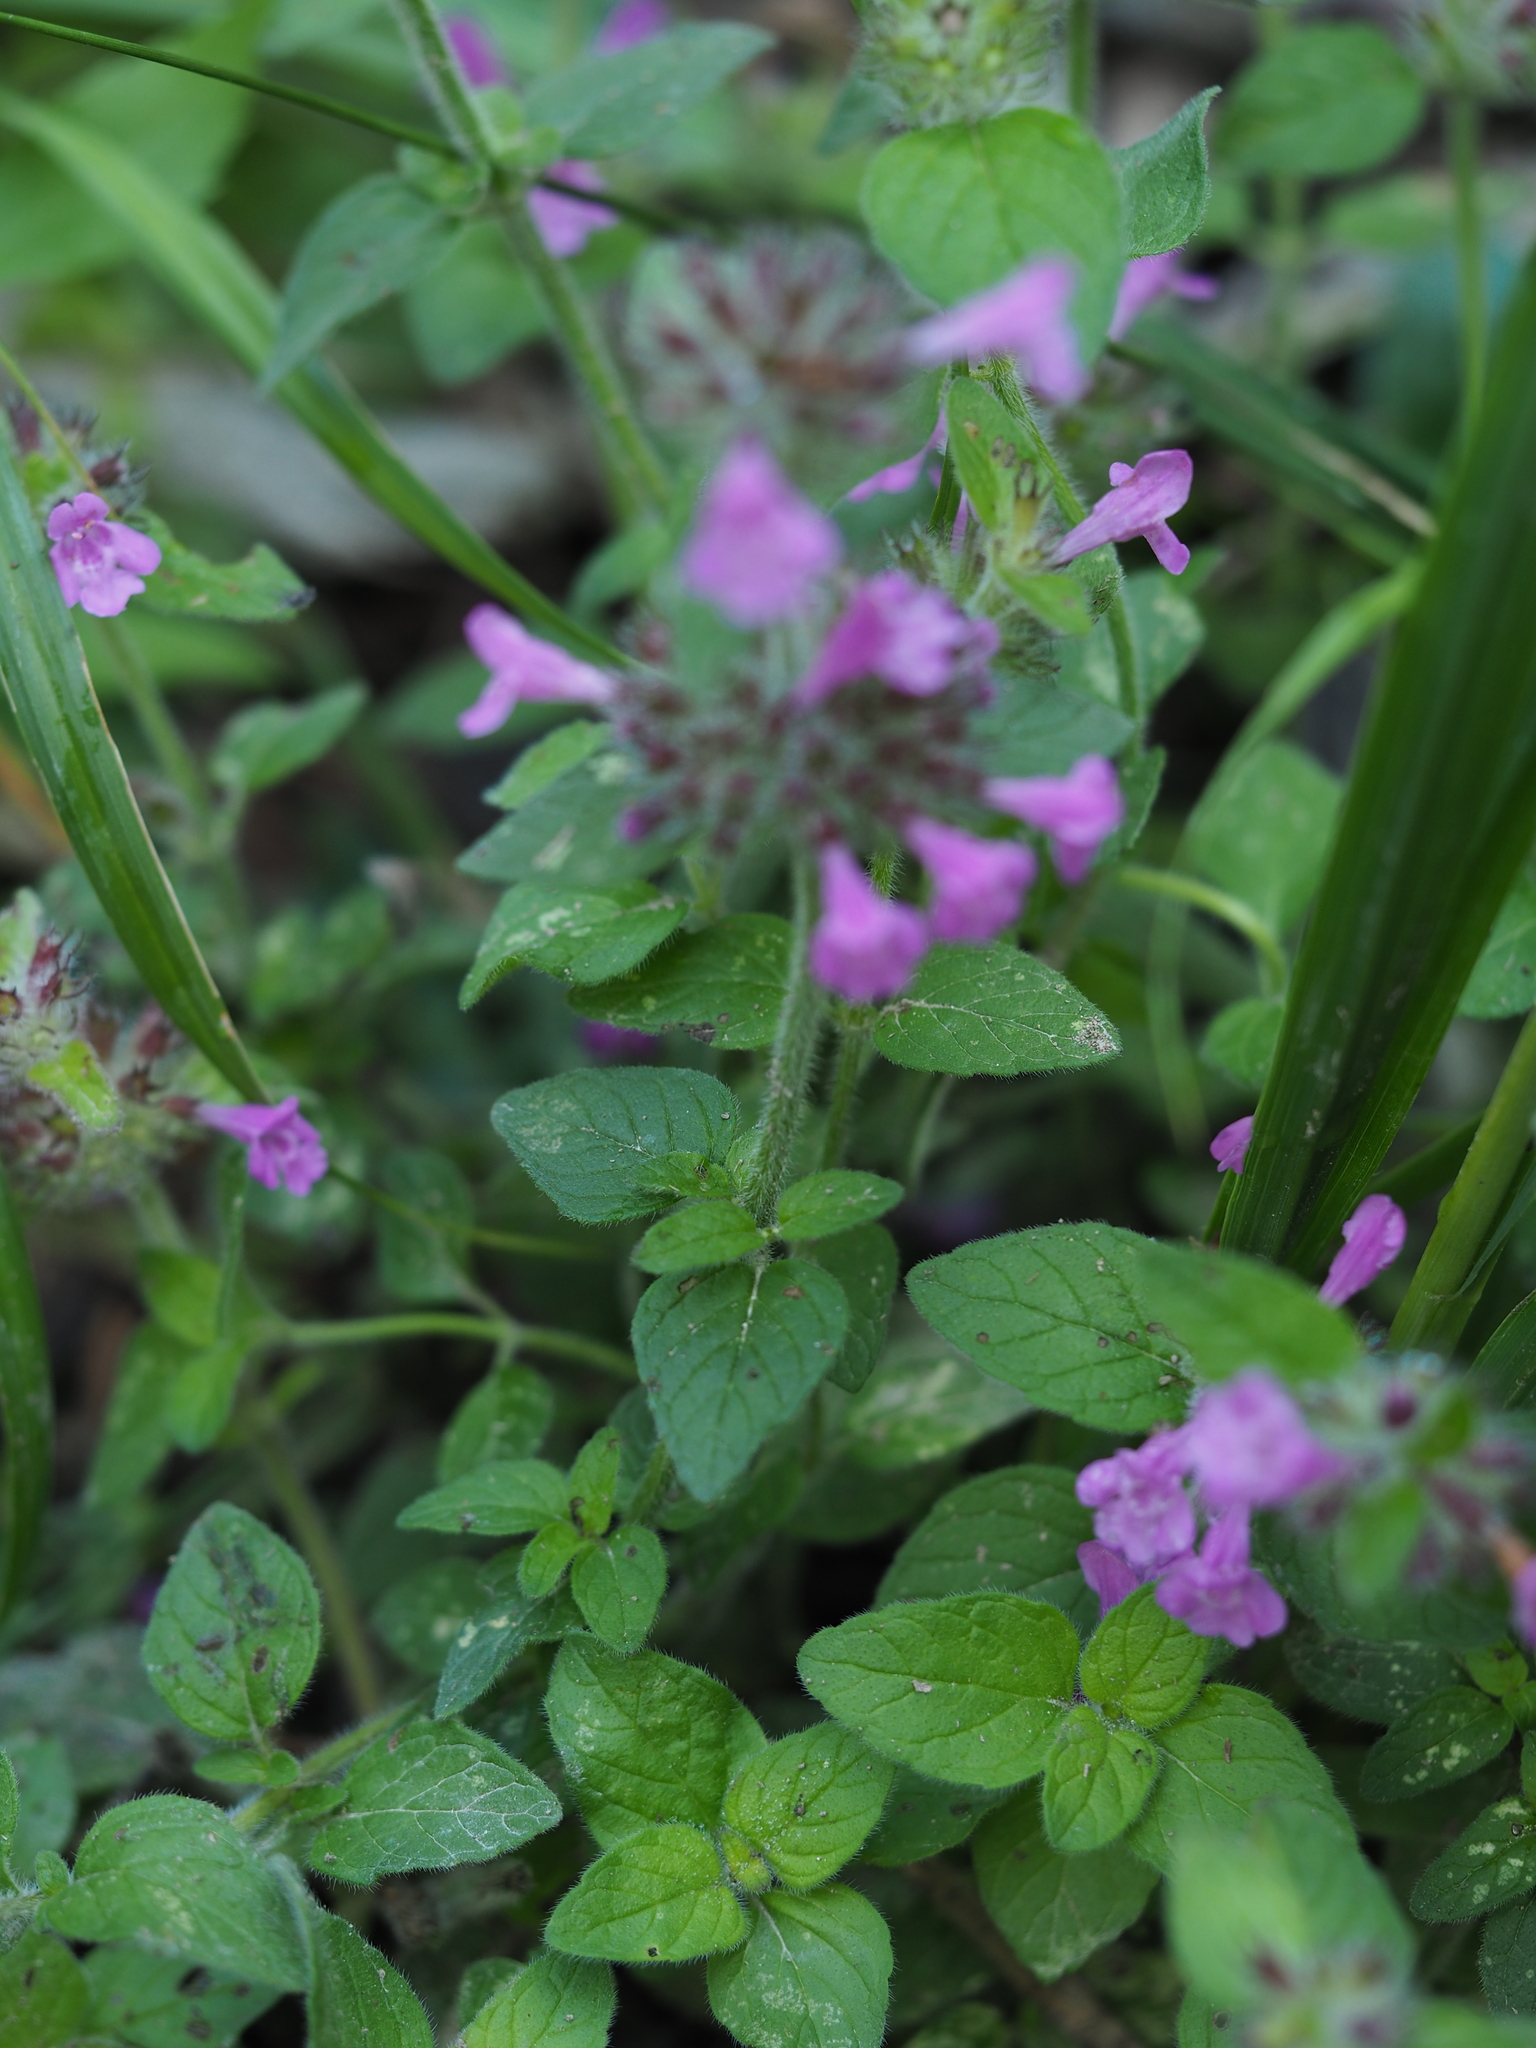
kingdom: Plantae
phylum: Tracheophyta
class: Magnoliopsida
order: Lamiales
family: Lamiaceae
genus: Clinopodium
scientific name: Clinopodium vulgare
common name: Wild basil
